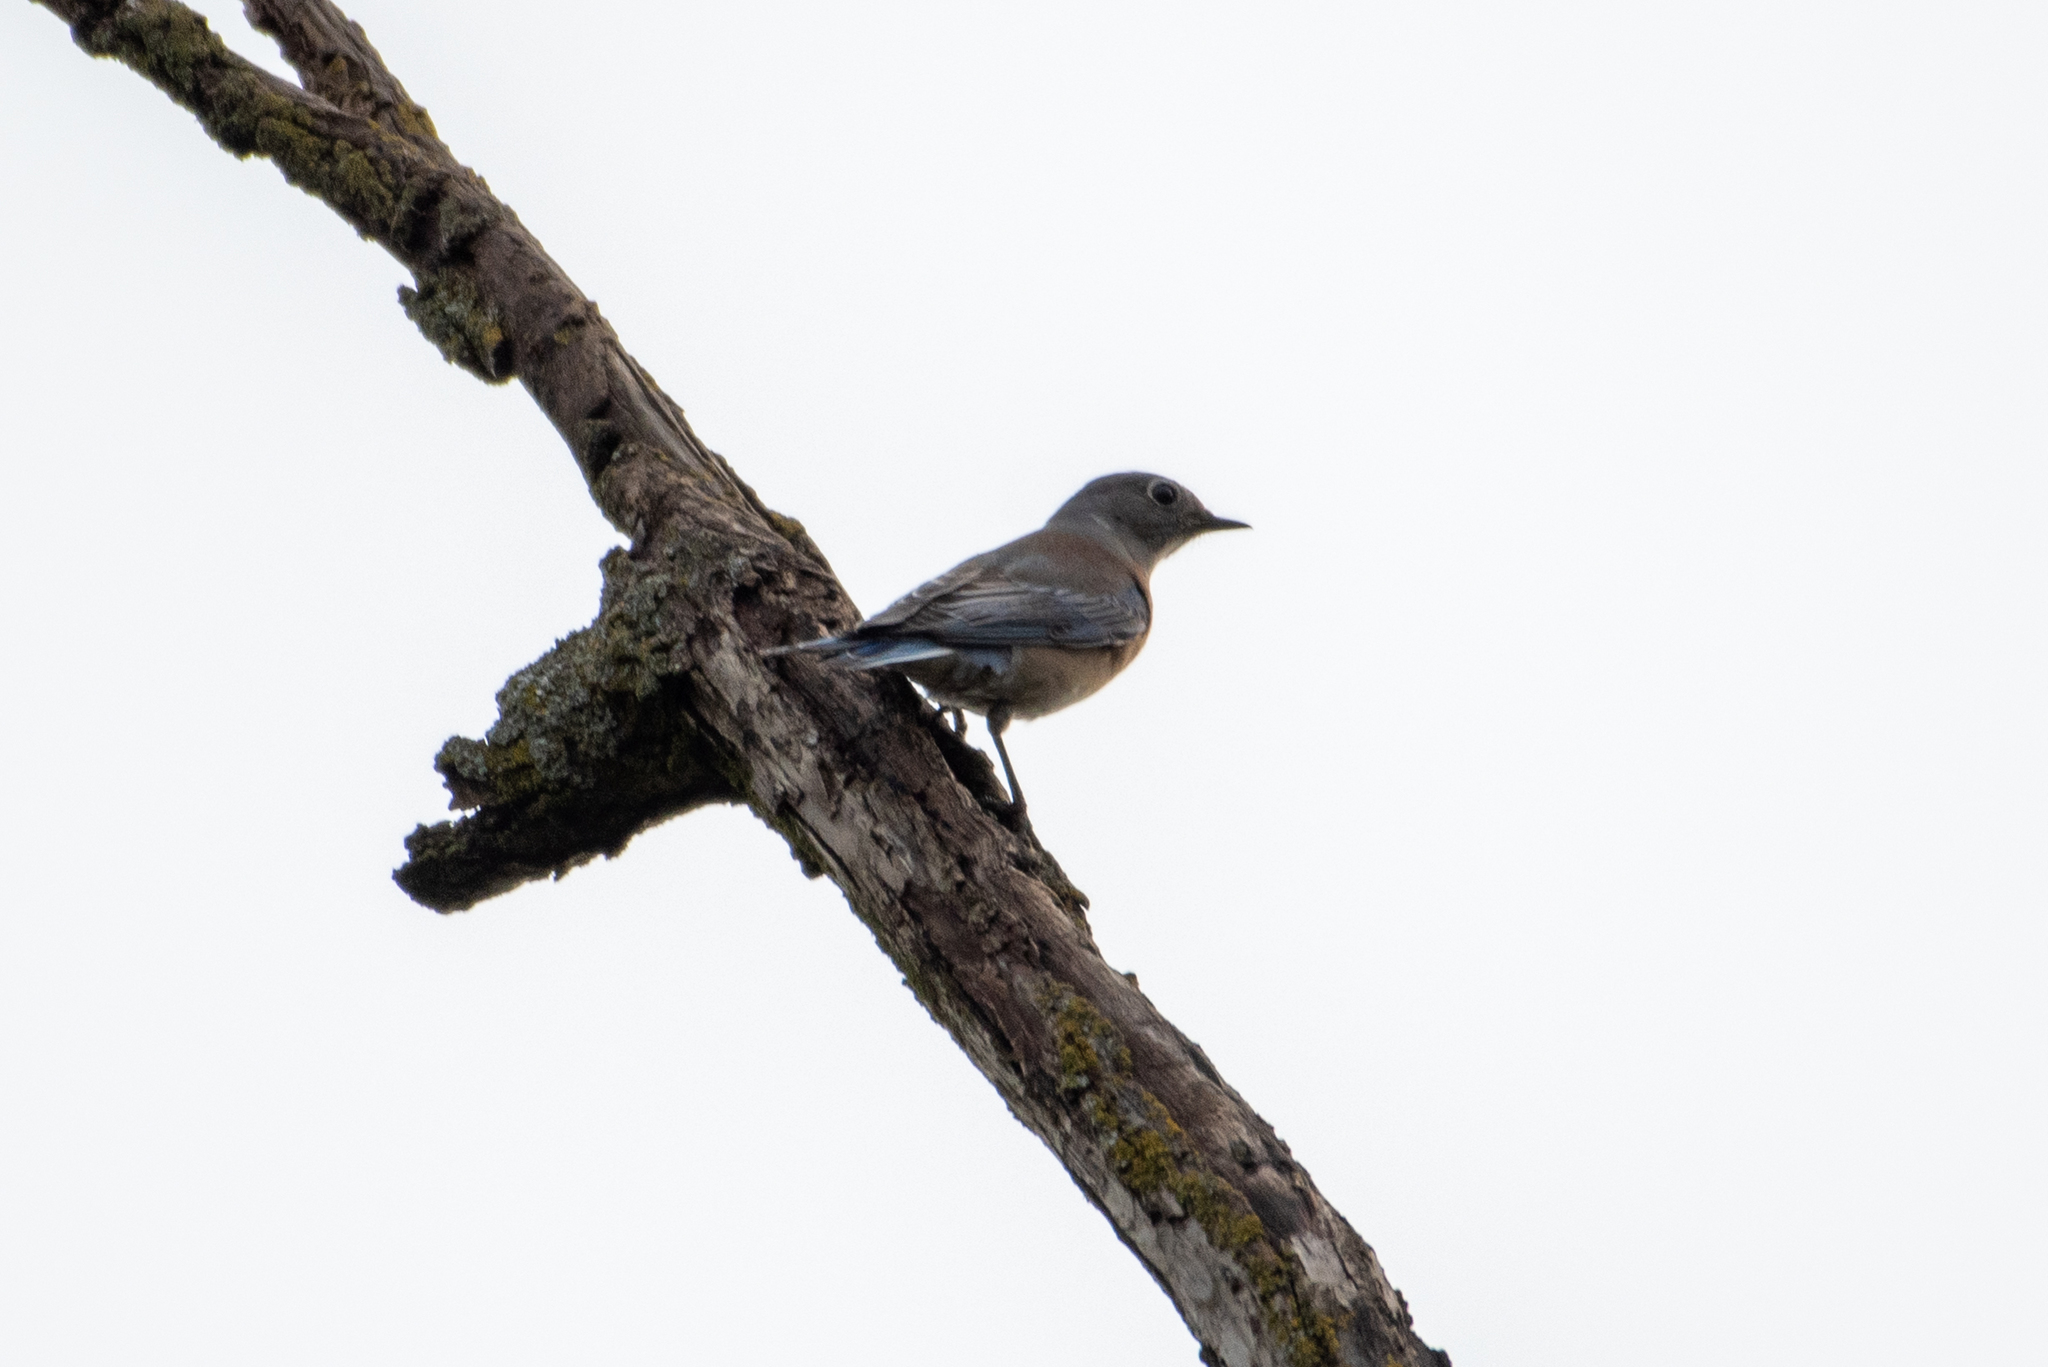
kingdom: Animalia
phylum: Chordata
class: Aves
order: Passeriformes
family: Turdidae
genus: Sialia
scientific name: Sialia mexicana
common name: Western bluebird
